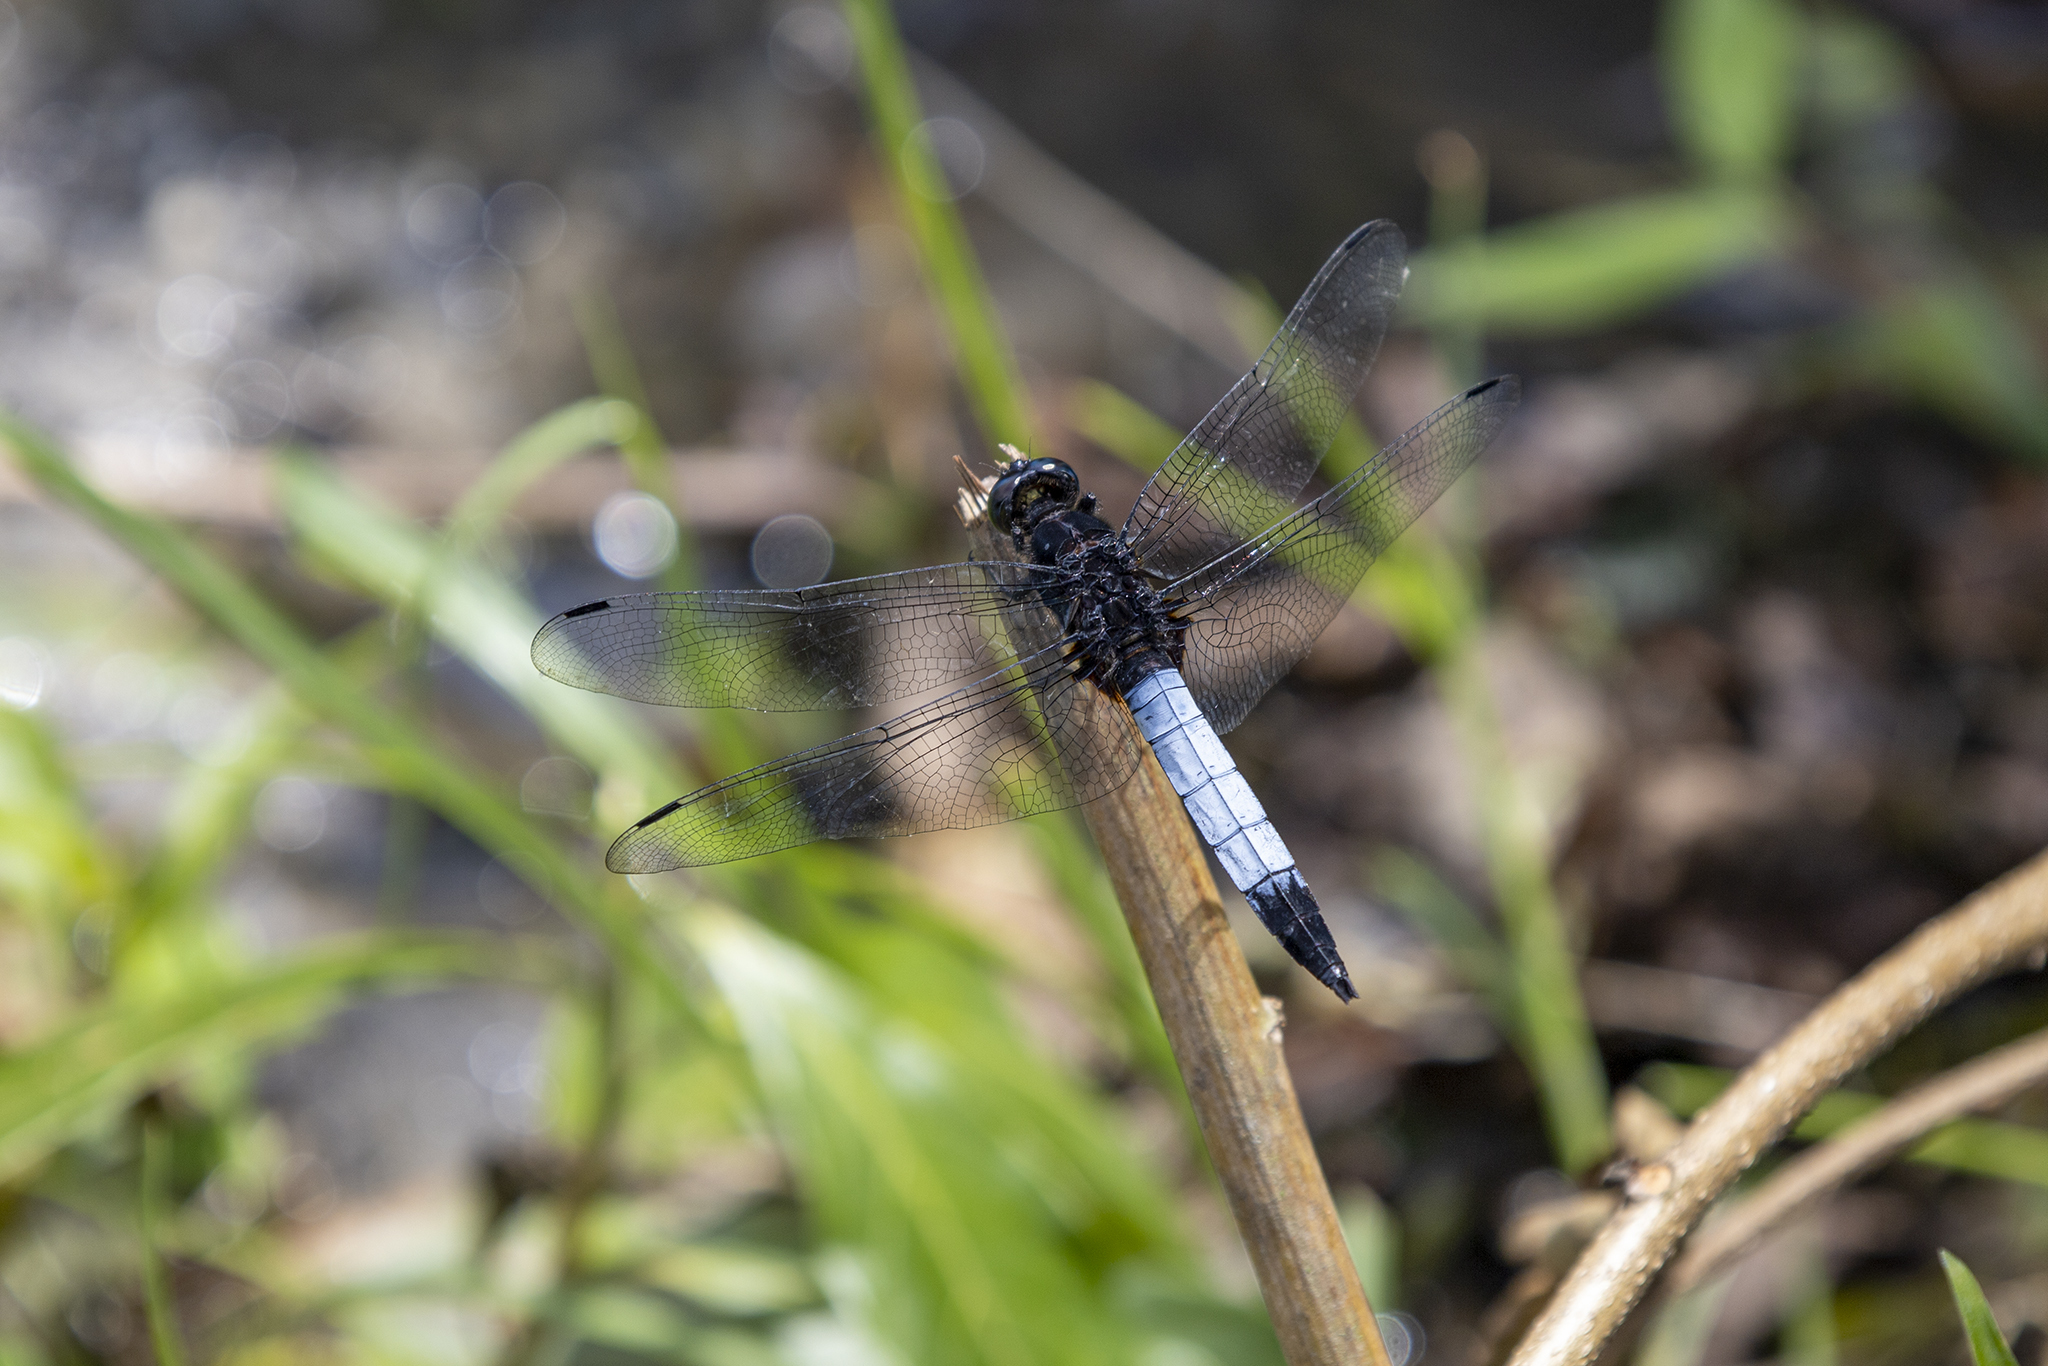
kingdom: Animalia
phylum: Arthropoda
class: Insecta
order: Odonata
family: Libellulidae
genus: Orthetrum
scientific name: Orthetrum triangulare
